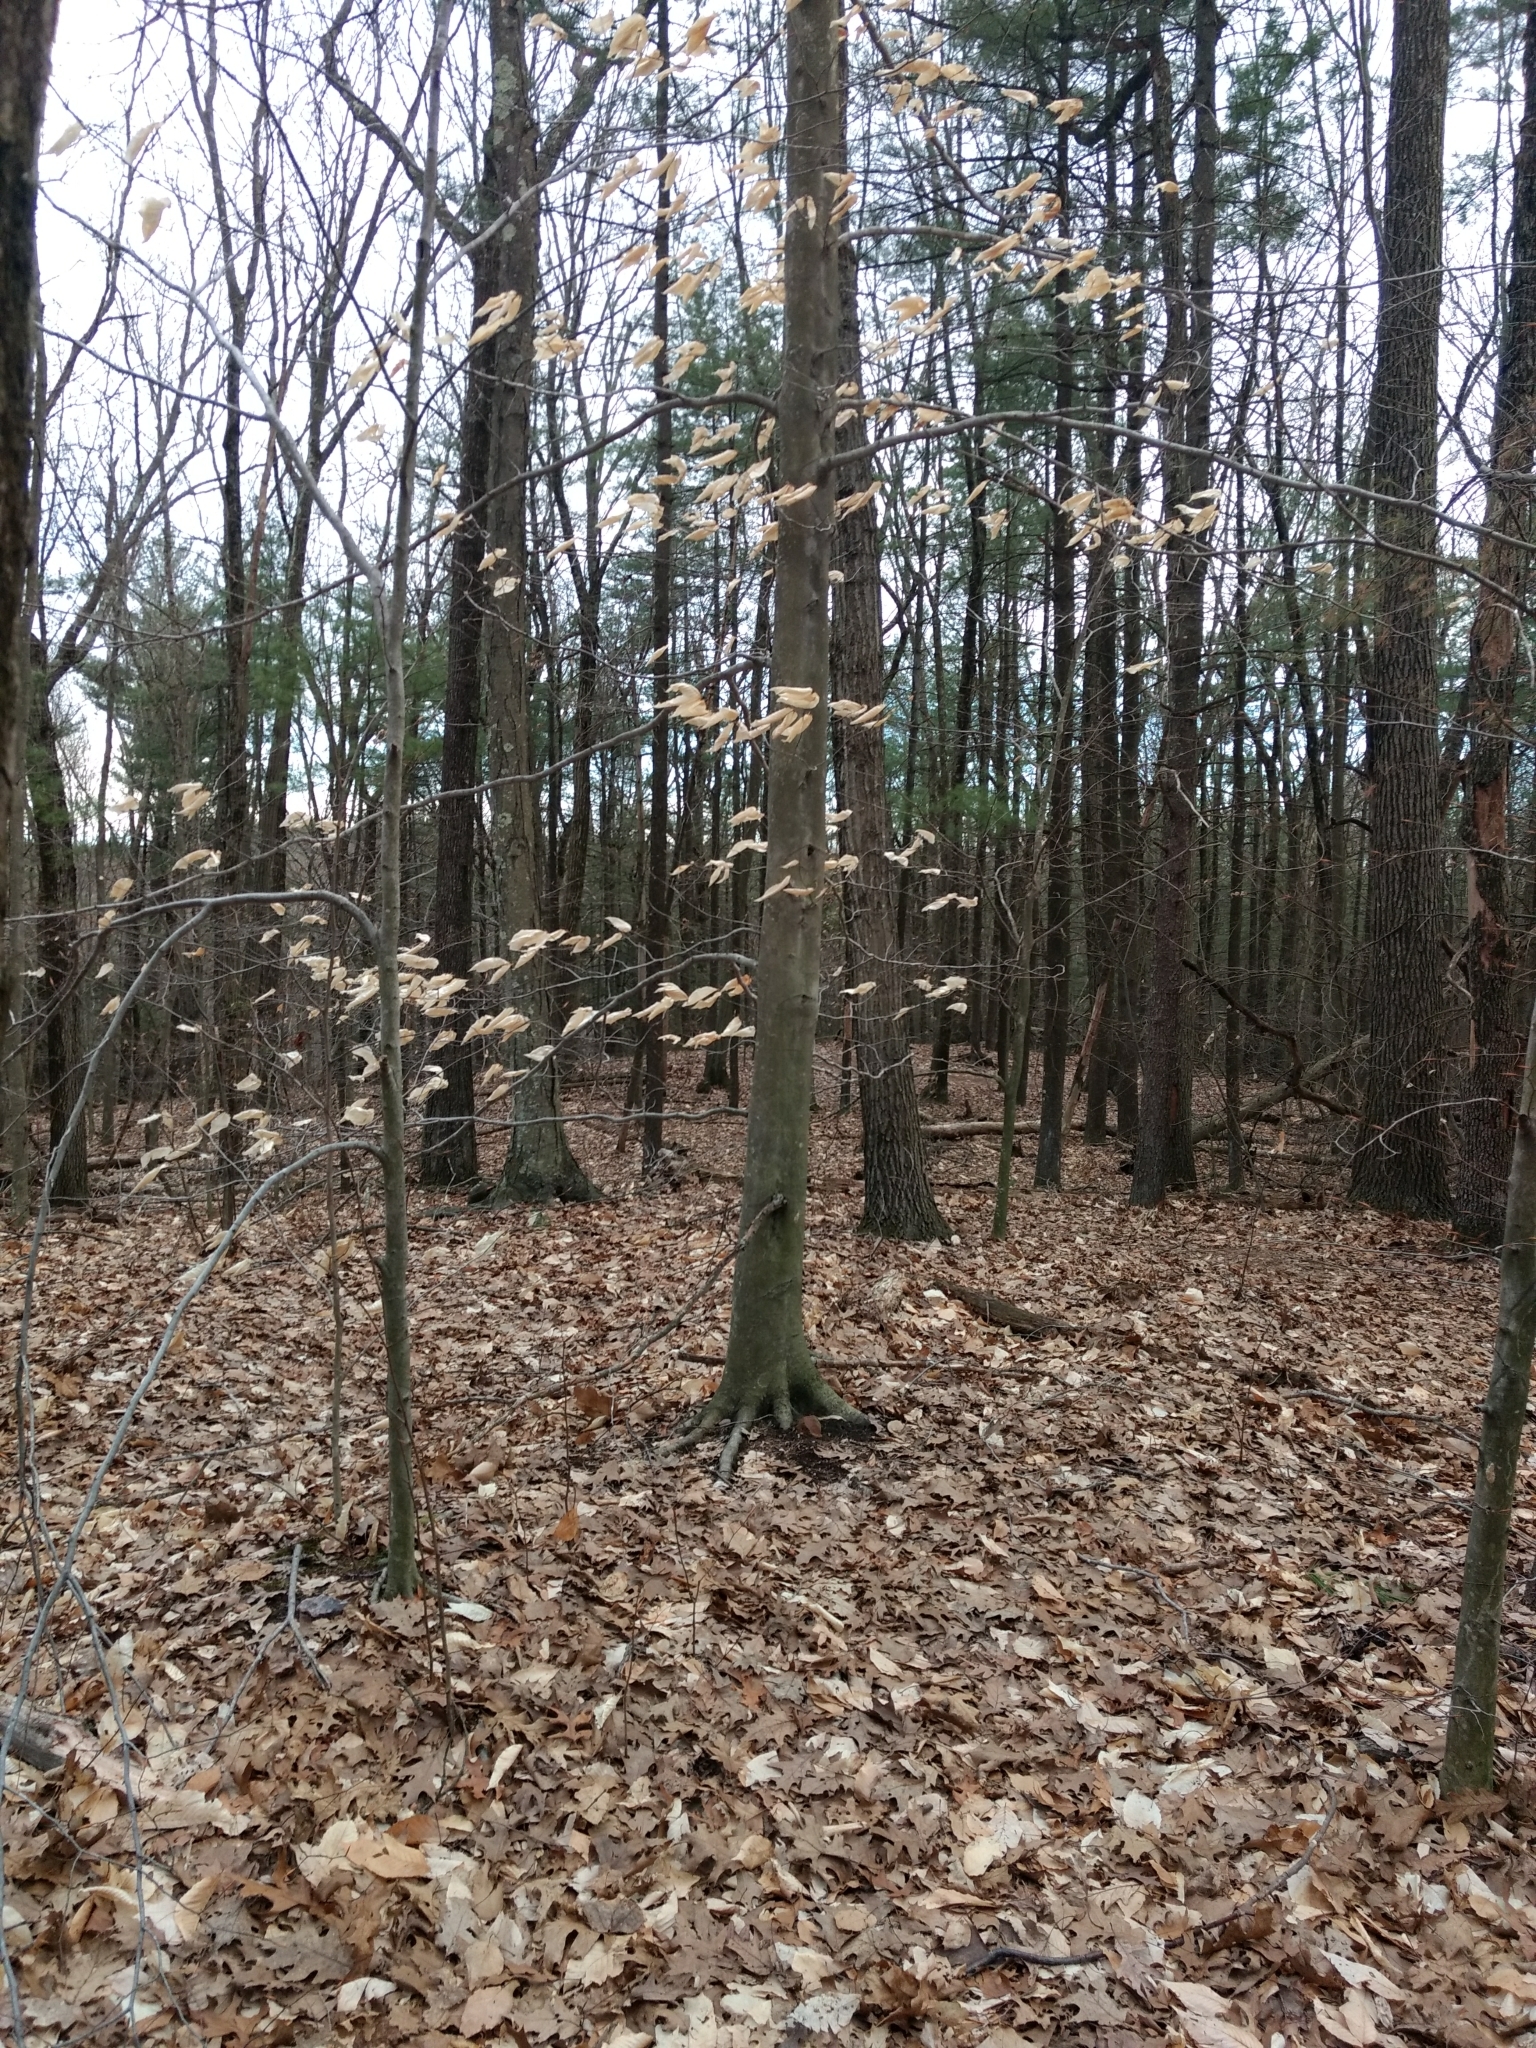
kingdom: Plantae
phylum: Tracheophyta
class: Magnoliopsida
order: Fagales
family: Fagaceae
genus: Fagus
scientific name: Fagus grandifolia
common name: American beech
